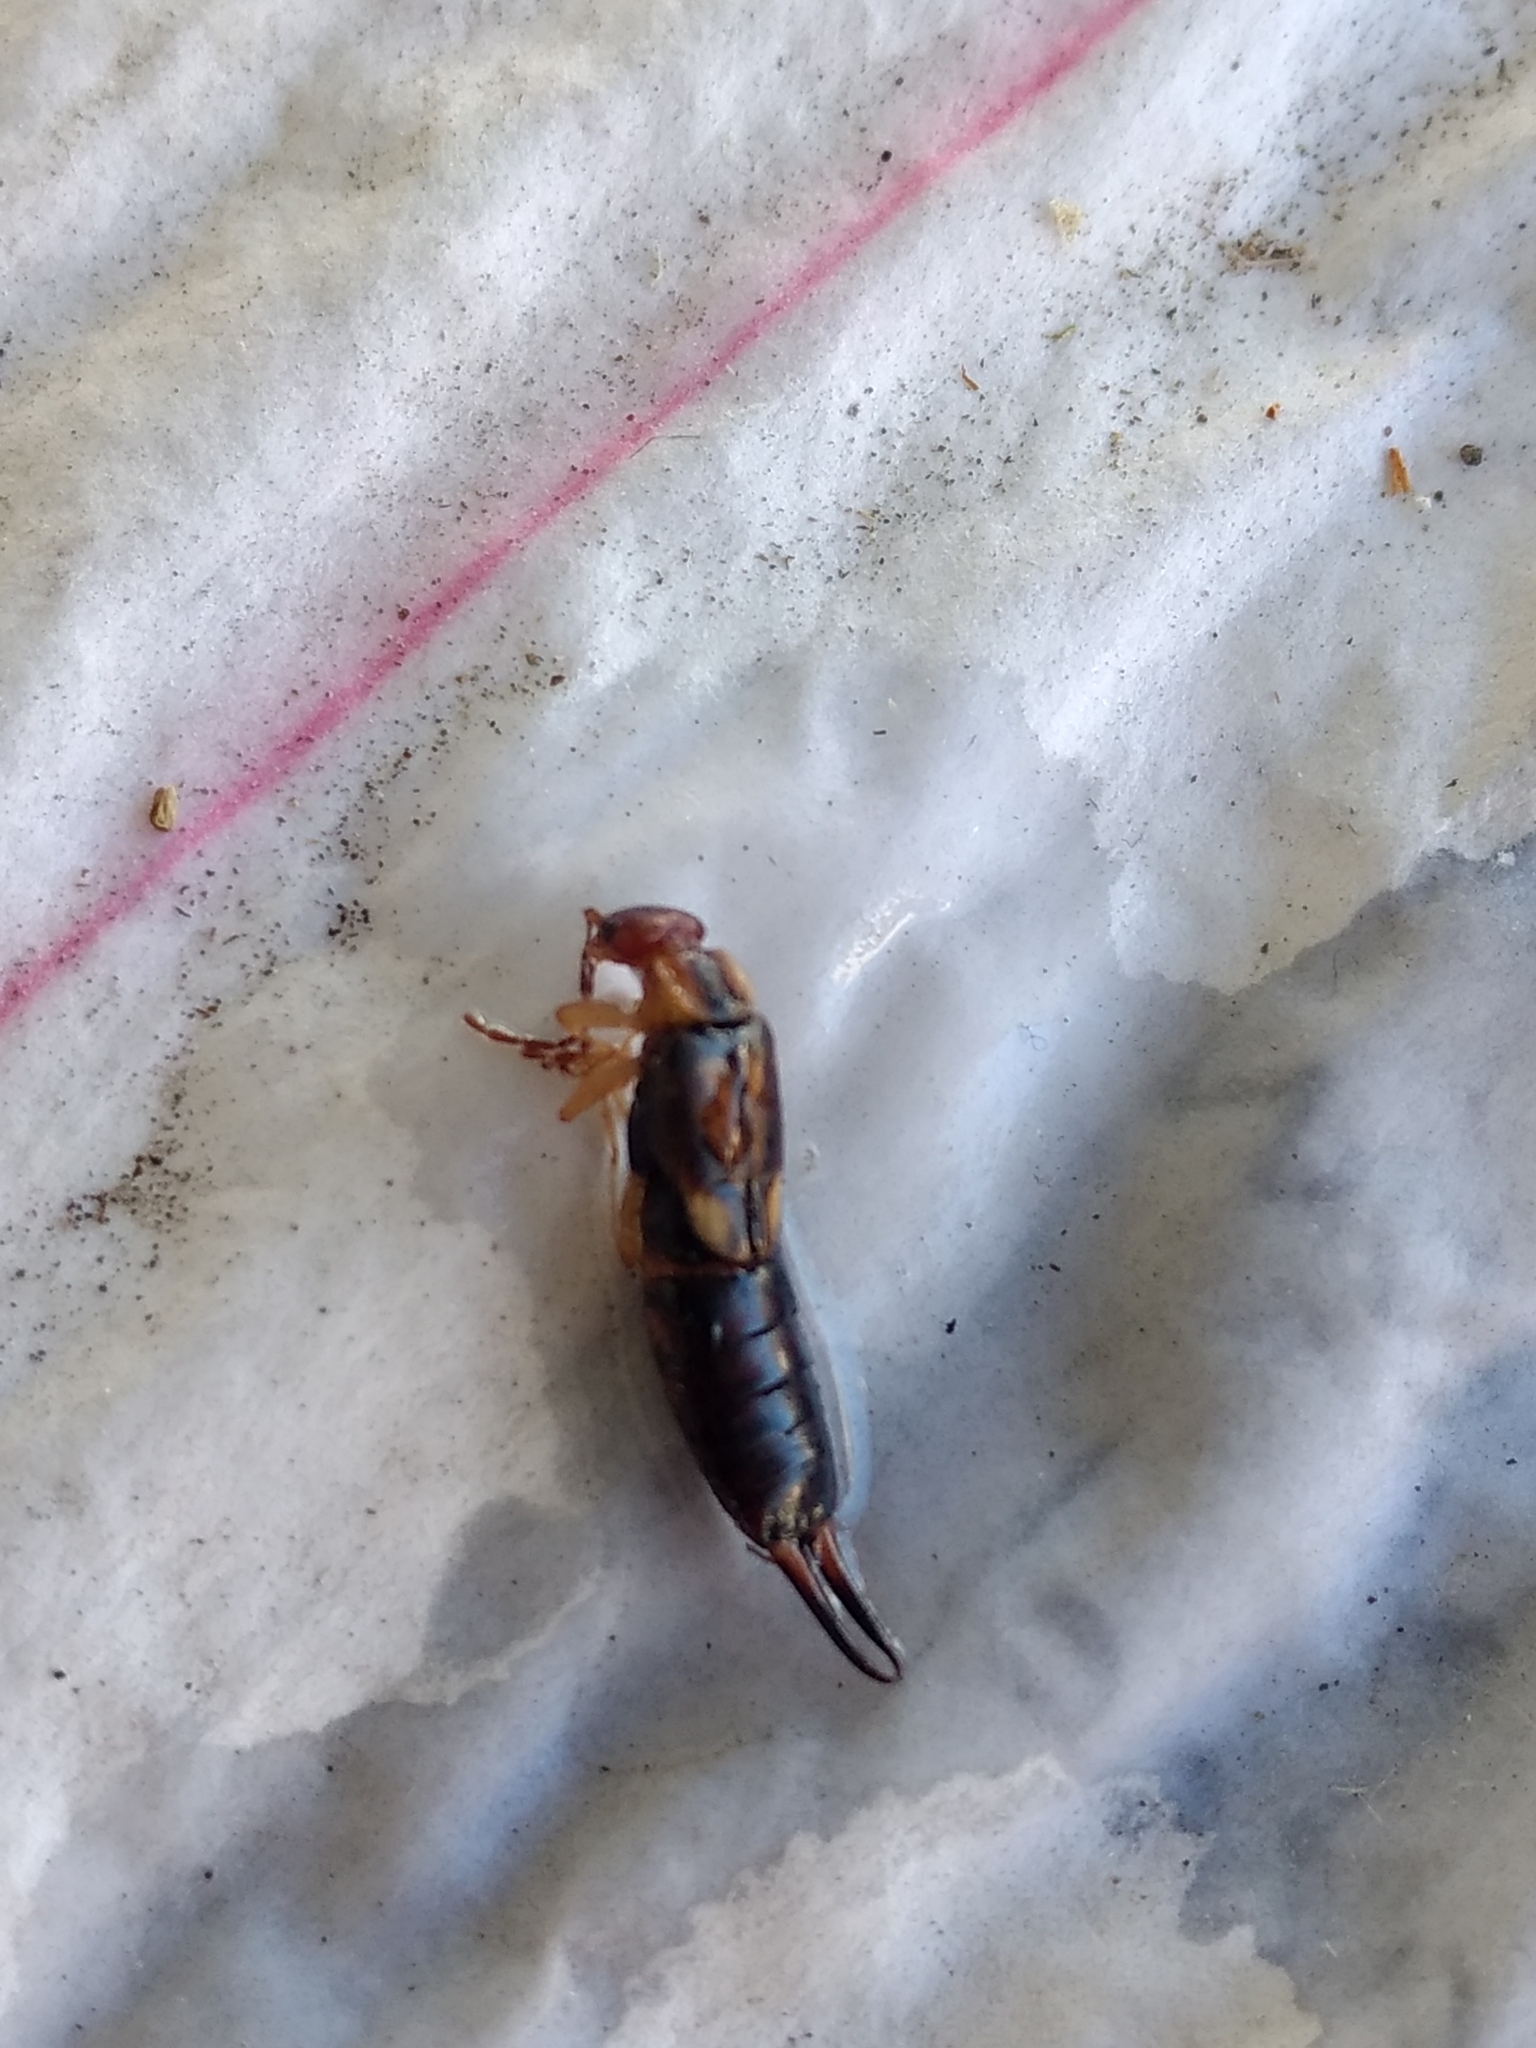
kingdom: Animalia
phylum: Arthropoda
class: Insecta
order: Dermaptera
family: Forficulidae
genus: Forficula
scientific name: Forficula
